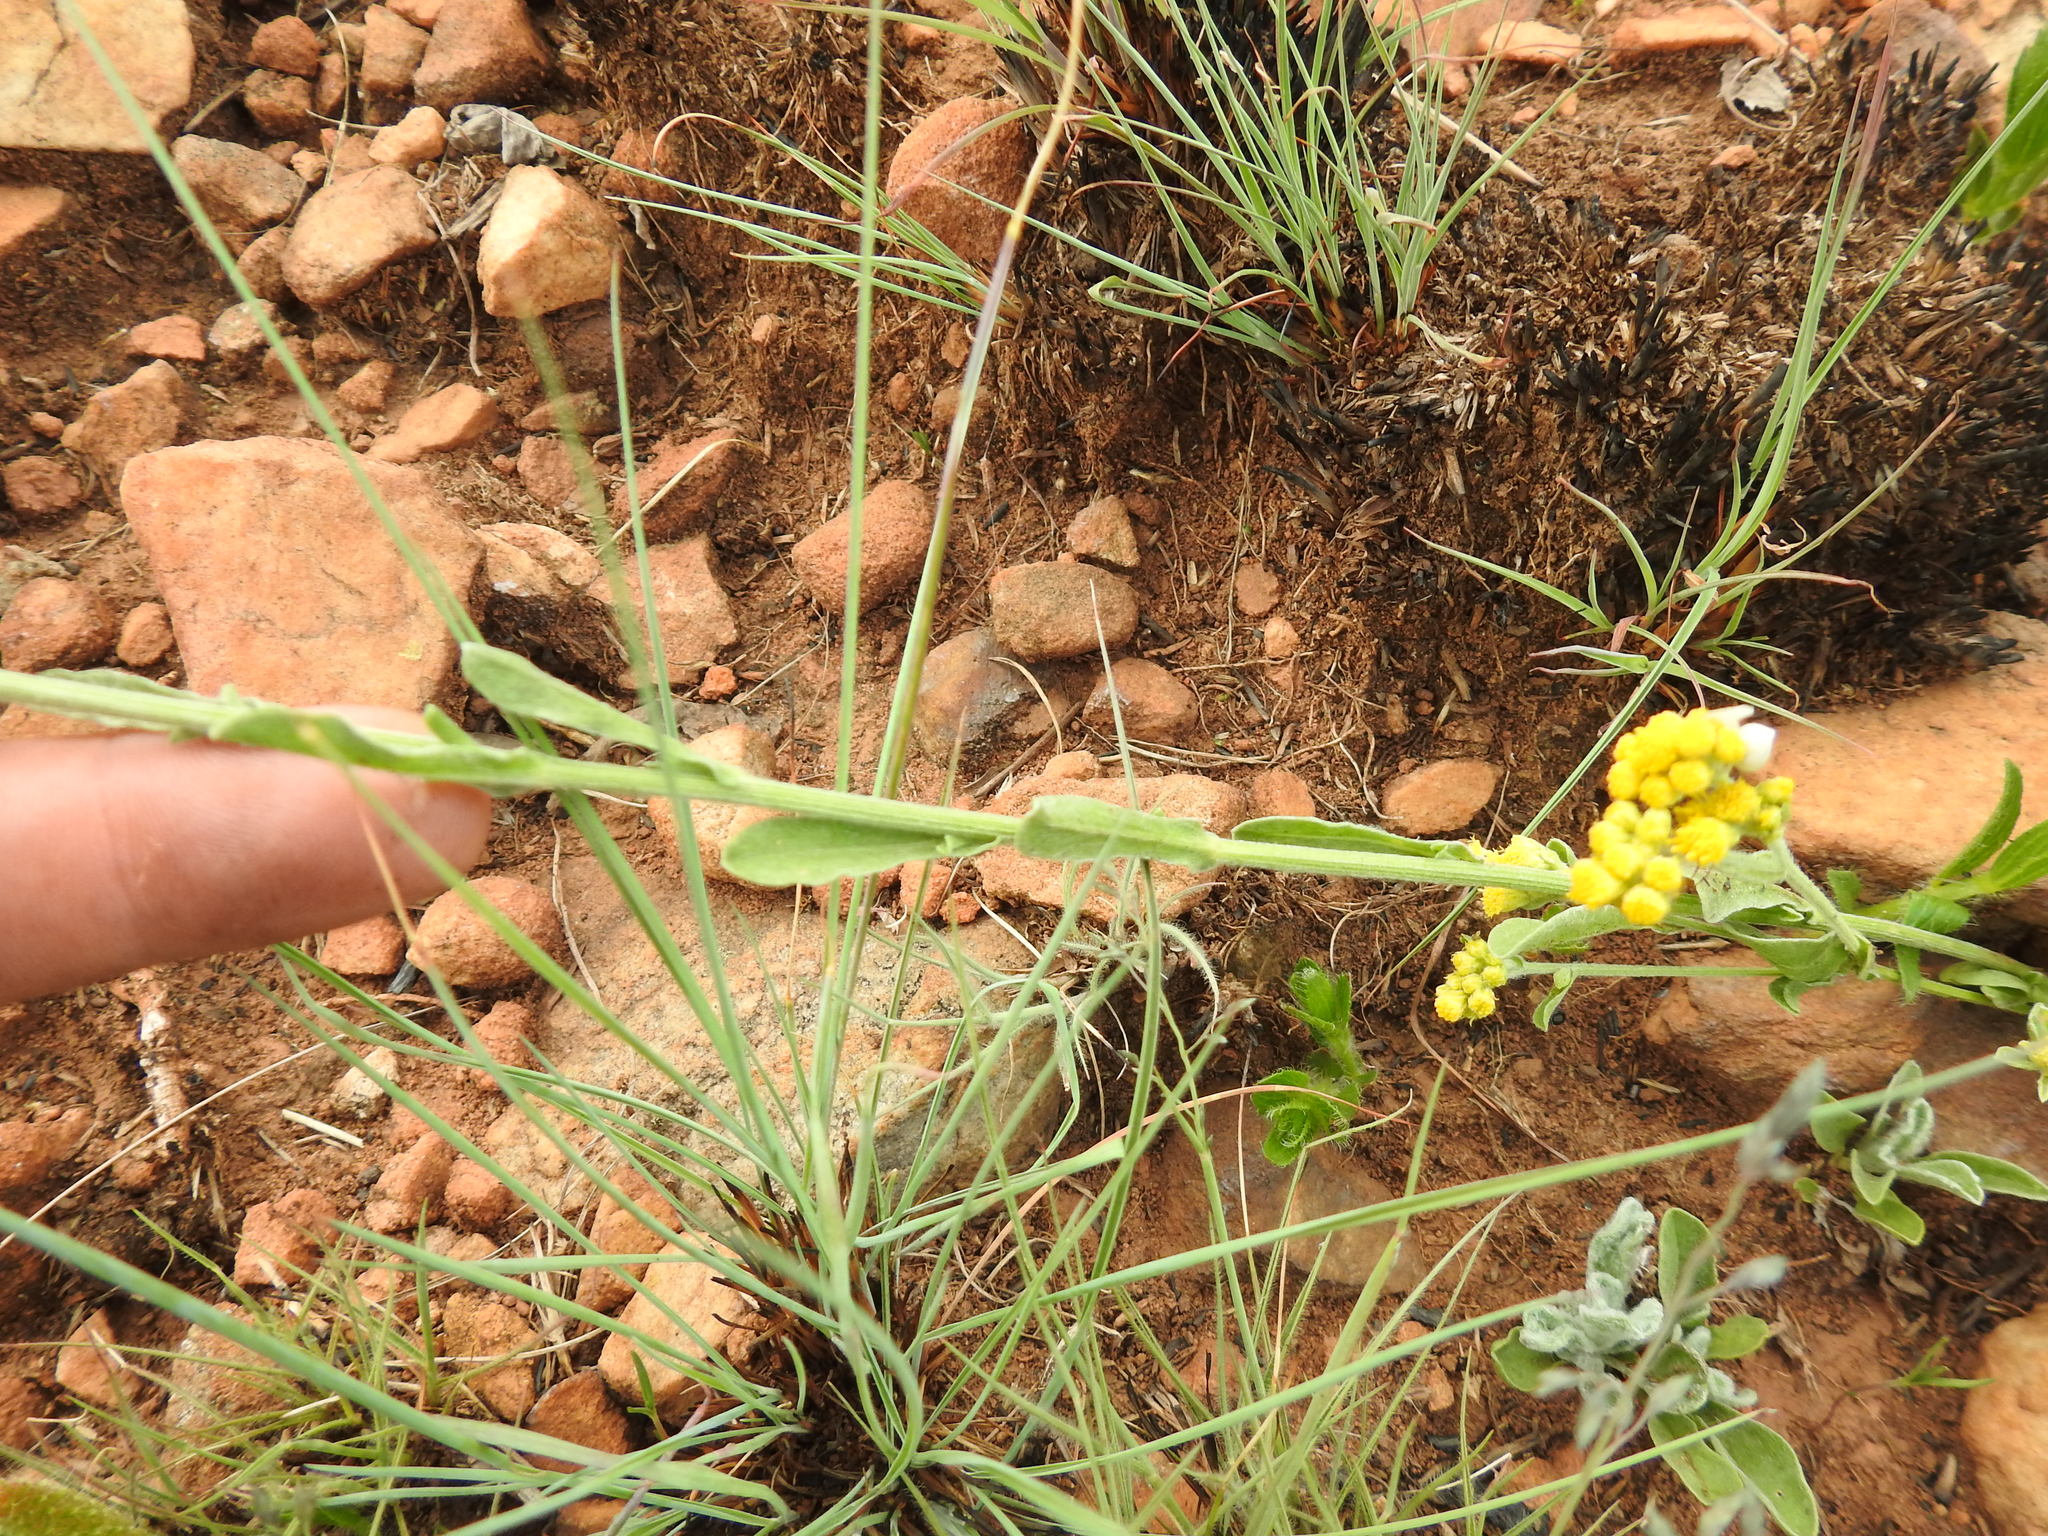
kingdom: Plantae
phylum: Tracheophyta
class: Magnoliopsida
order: Asterales
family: Asteraceae
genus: Nidorella
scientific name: Nidorella hottentotica
